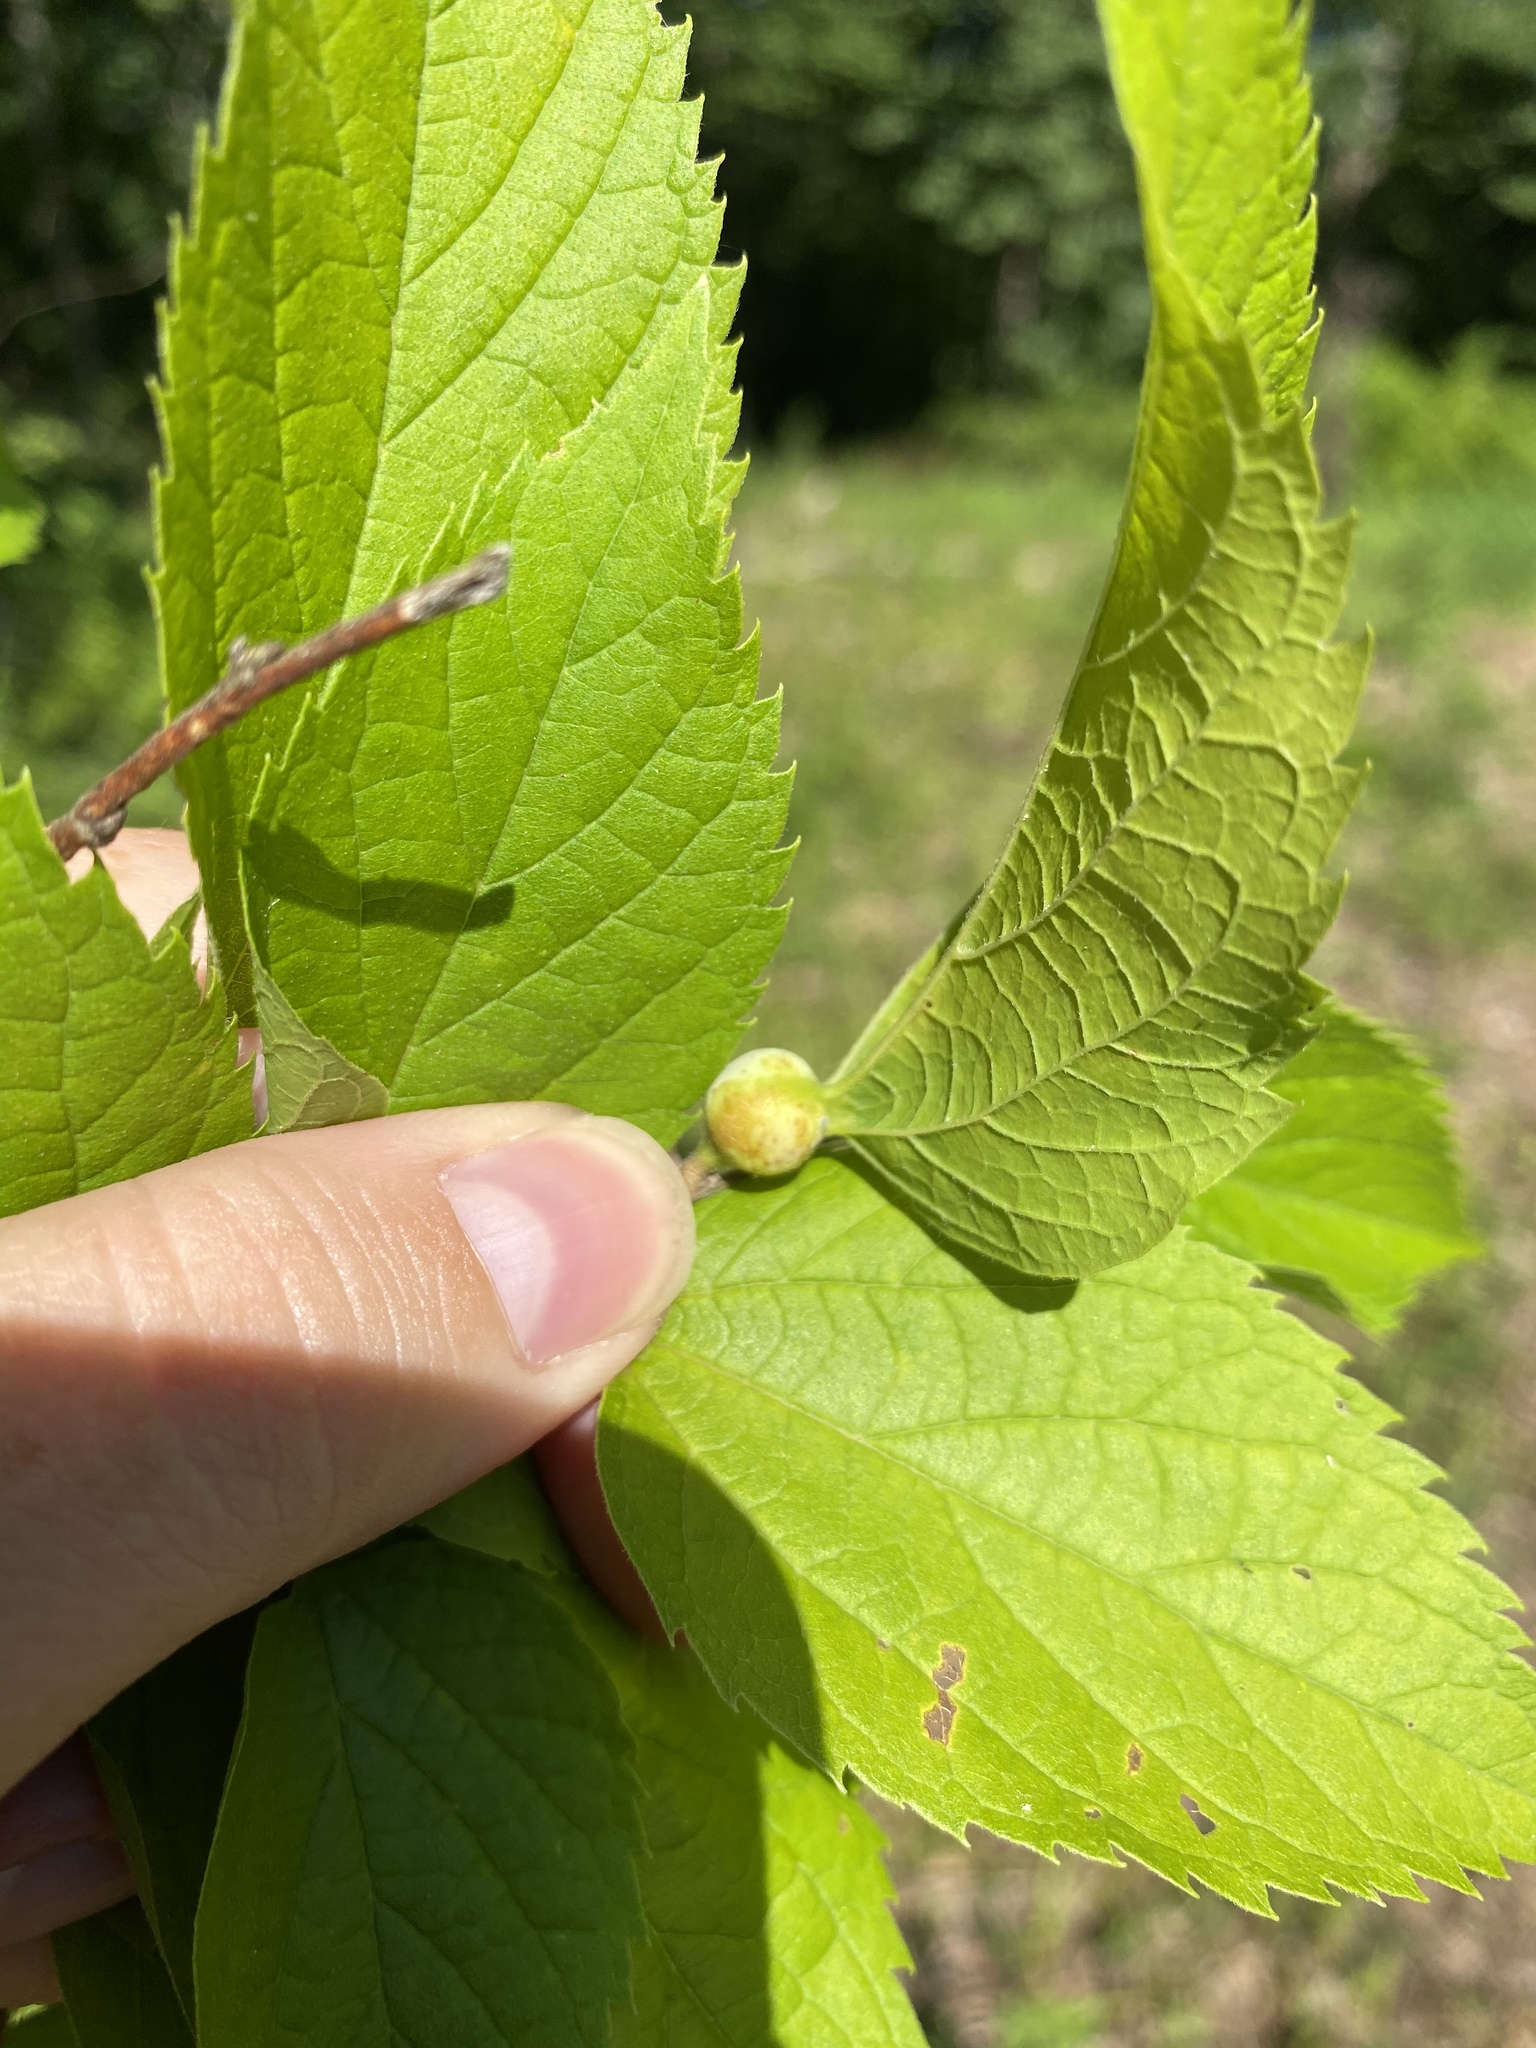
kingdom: Animalia
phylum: Arthropoda
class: Insecta
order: Hemiptera
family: Aphalaridae
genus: Pachypsylla
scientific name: Pachypsylla venusta
